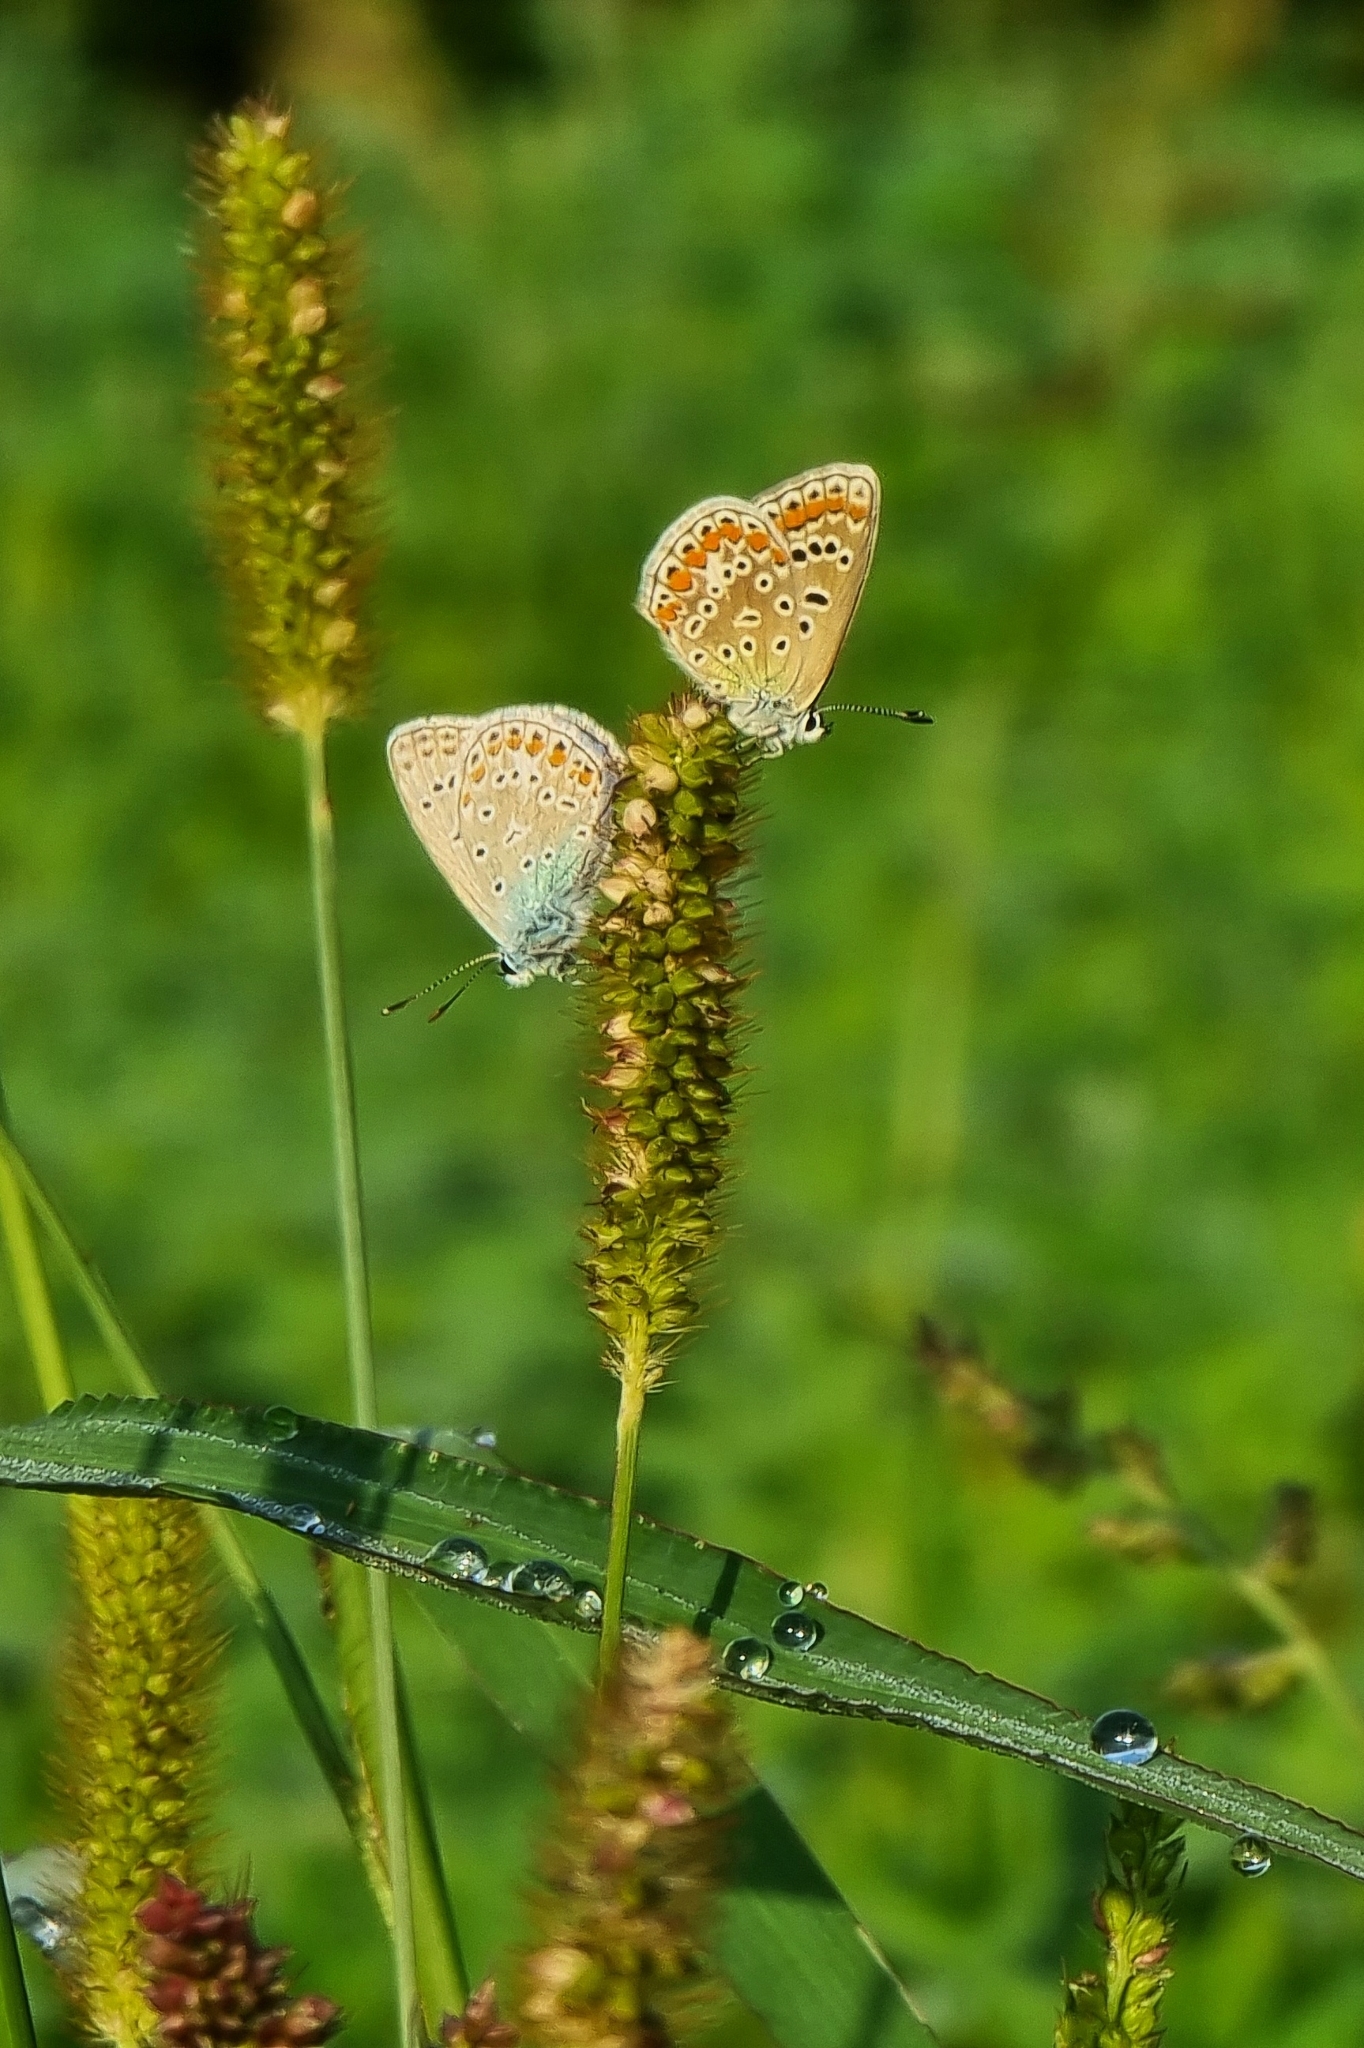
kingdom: Animalia
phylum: Arthropoda
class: Insecta
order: Lepidoptera
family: Lycaenidae
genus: Polyommatus
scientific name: Polyommatus icarus
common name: Common blue
